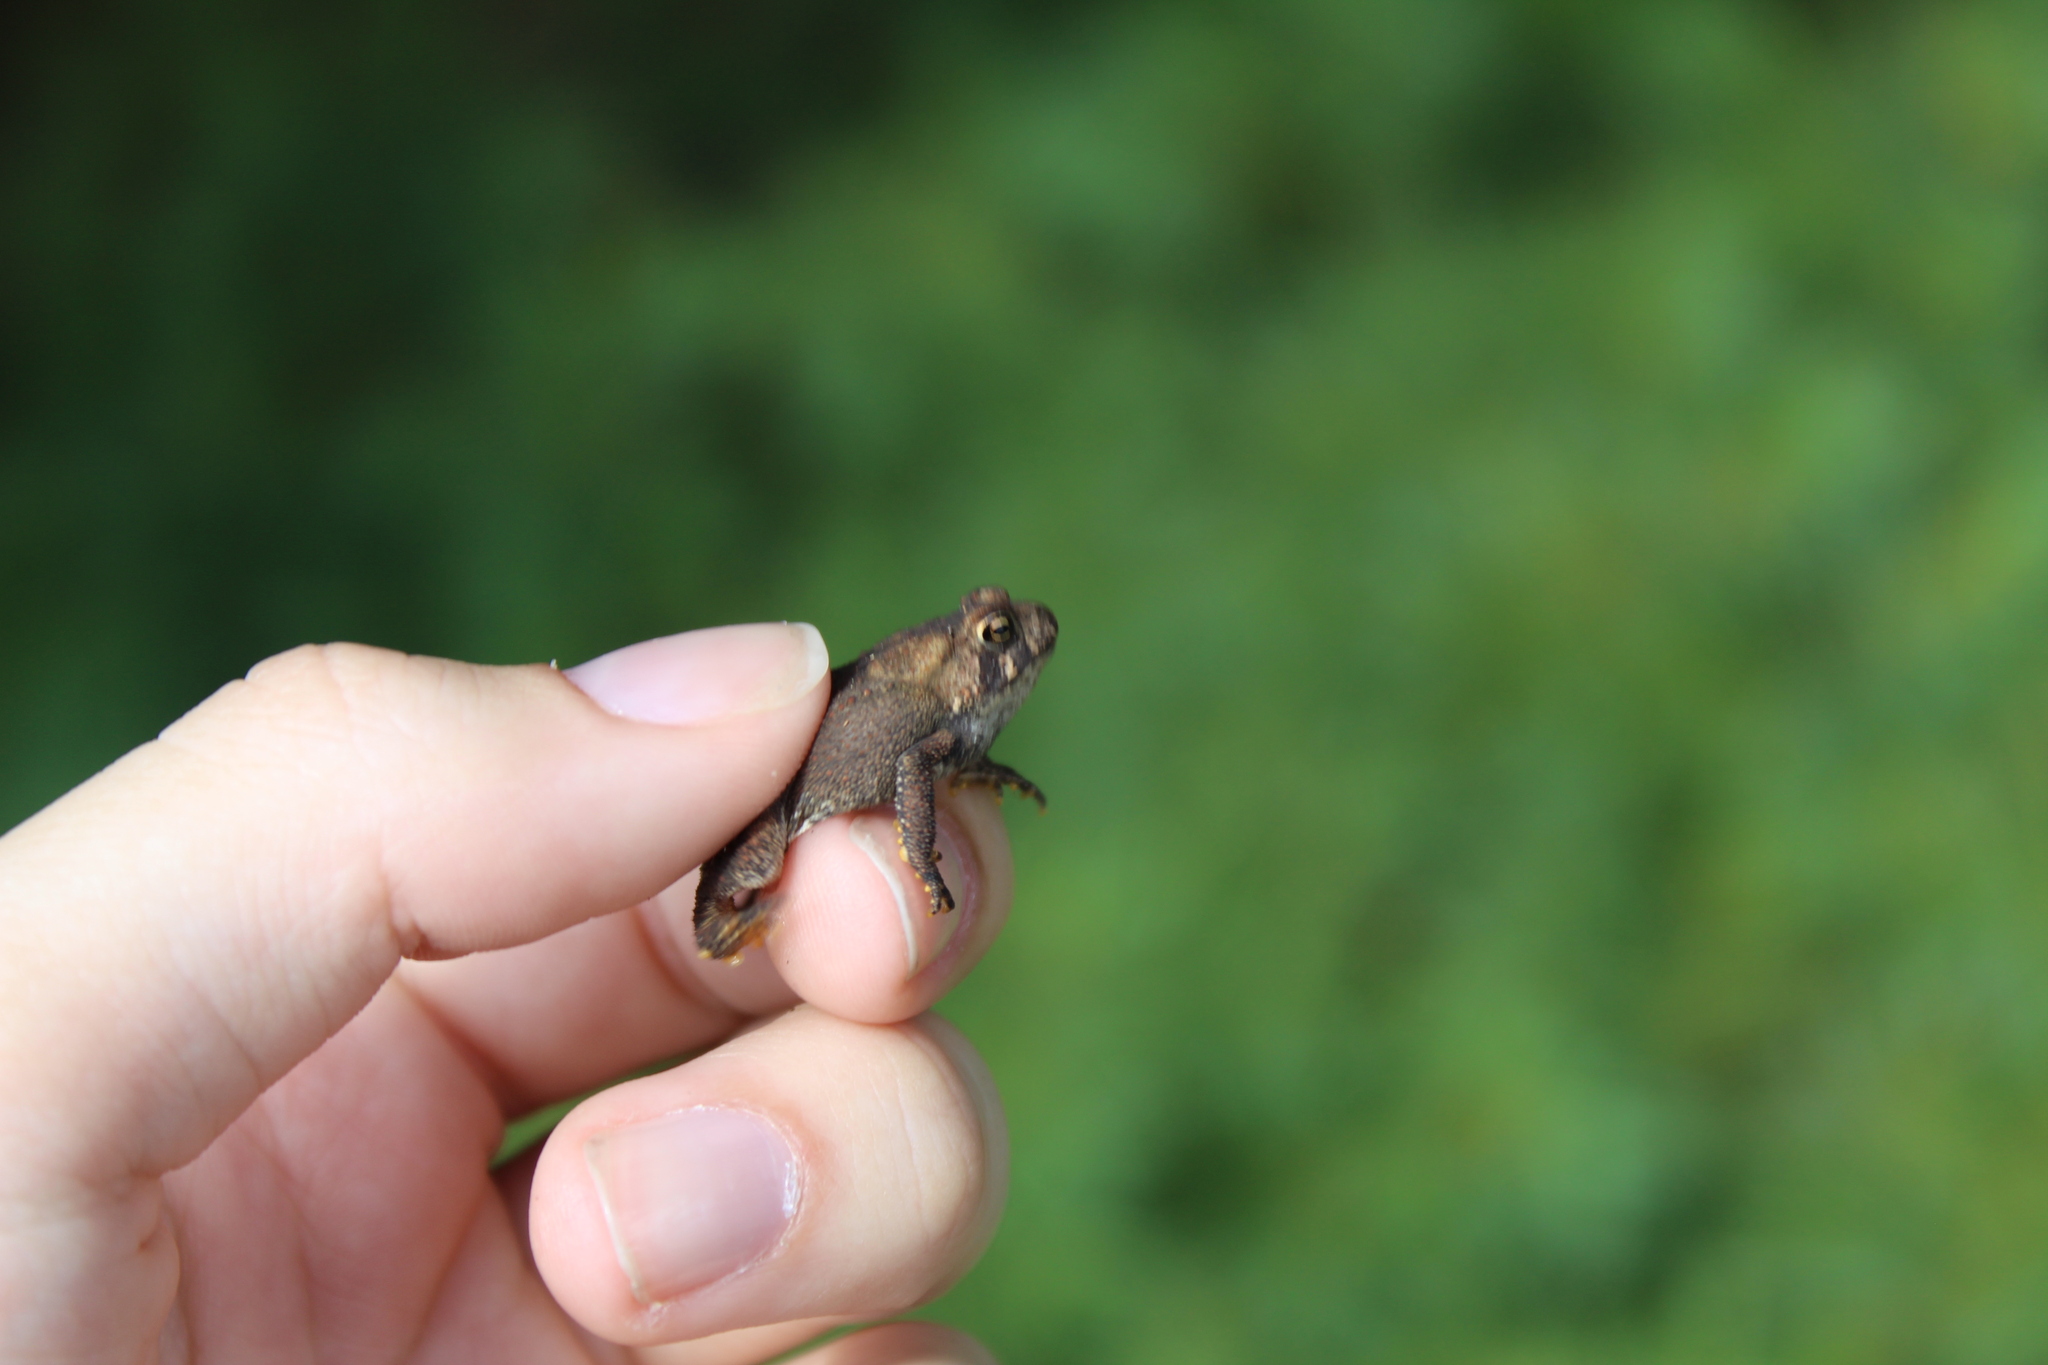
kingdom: Animalia
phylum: Chordata
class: Amphibia
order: Anura
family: Bufonidae
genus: Anaxyrus
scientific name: Anaxyrus americanus
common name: American toad
